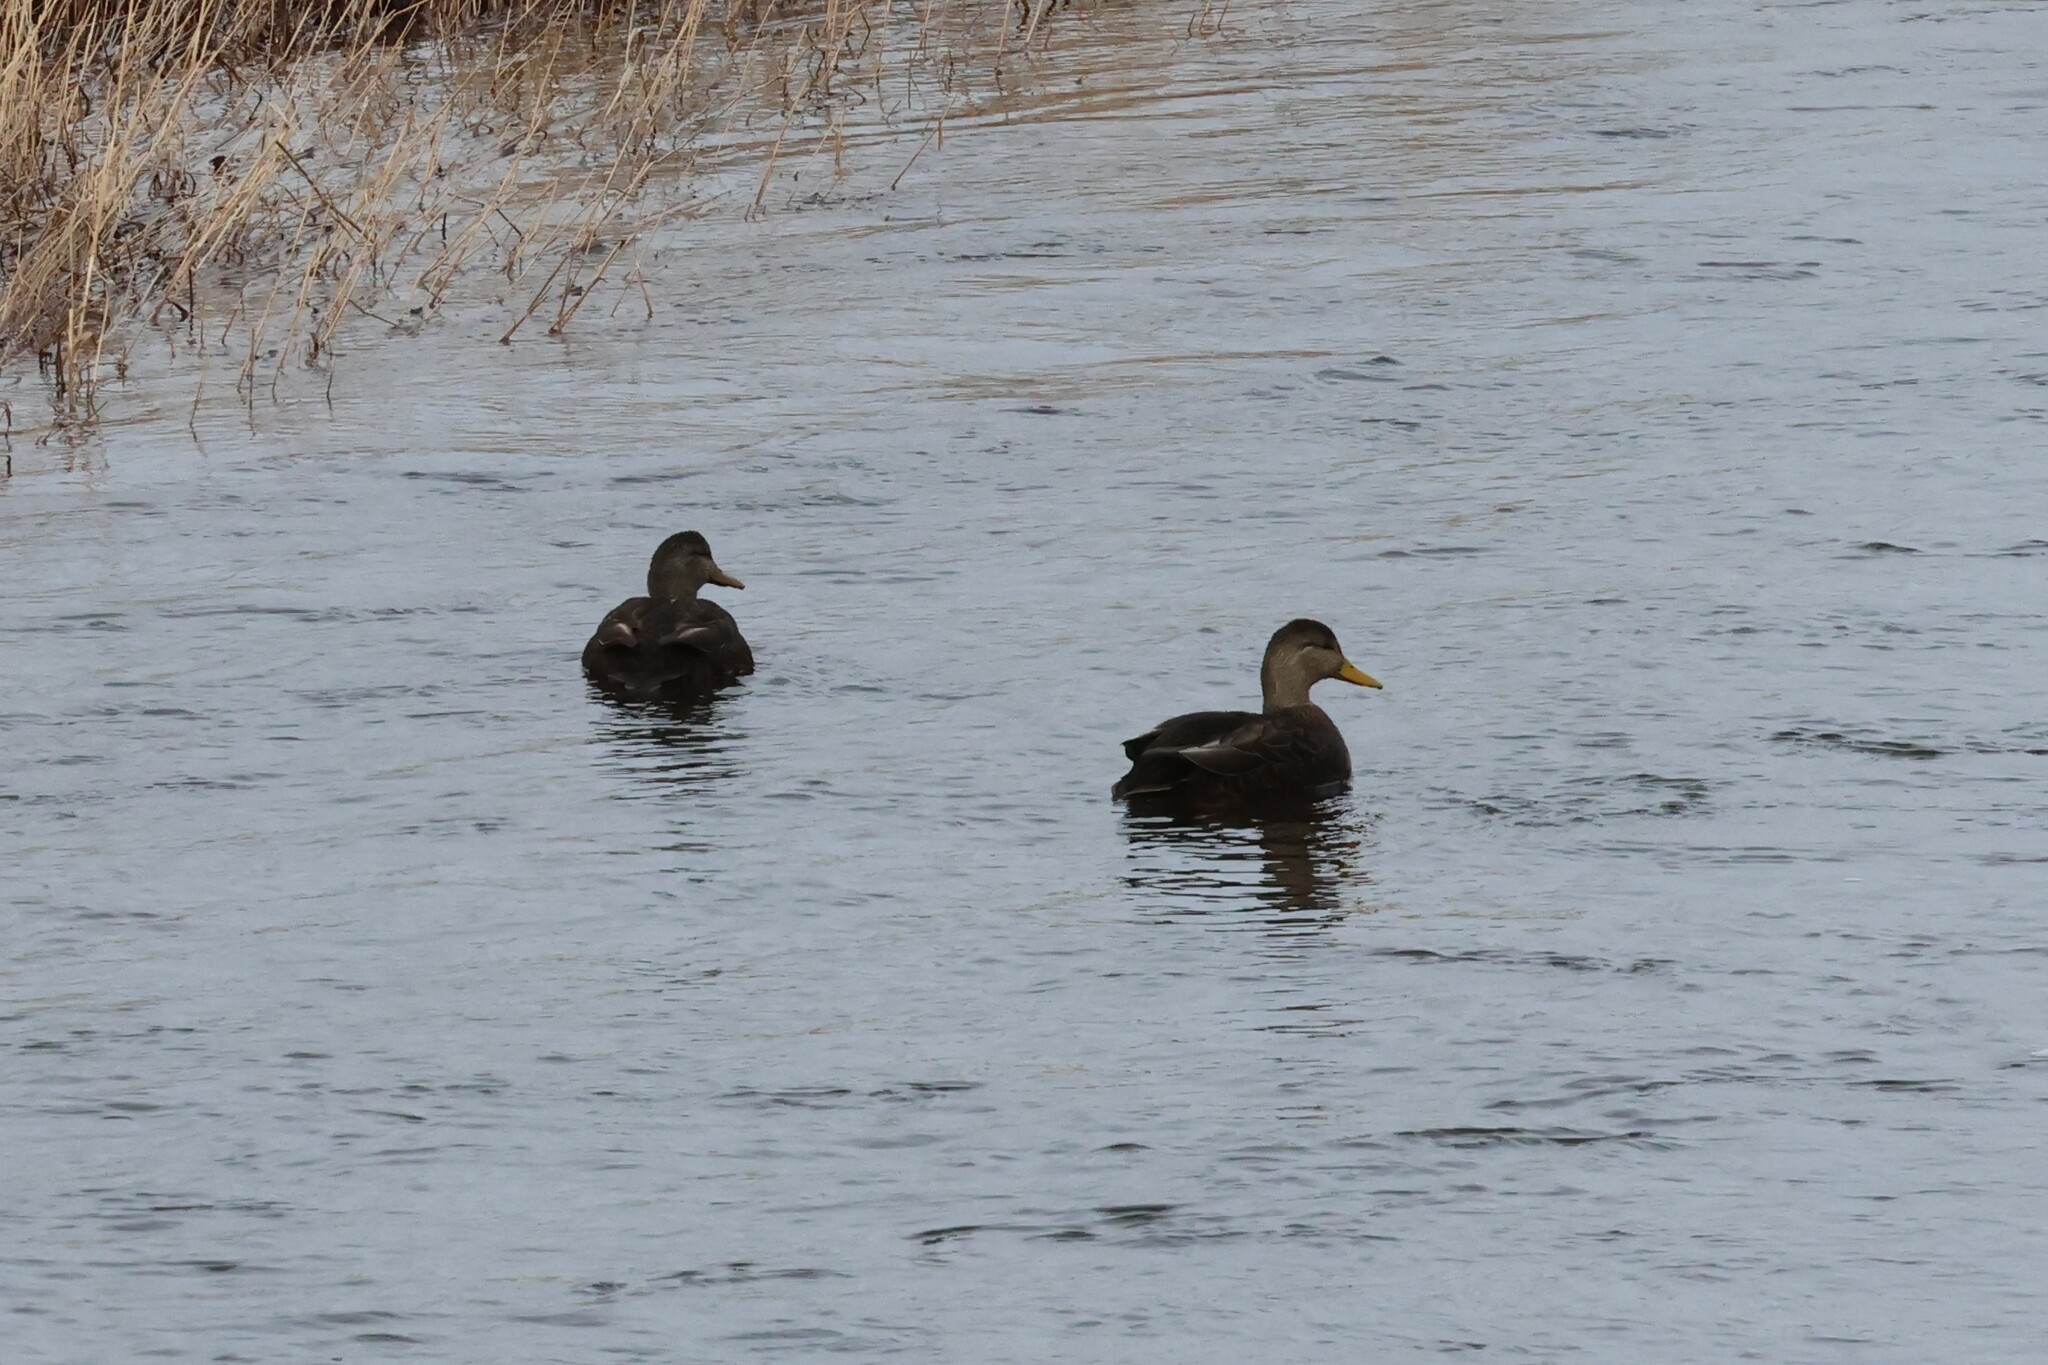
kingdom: Animalia
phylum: Chordata
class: Aves
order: Anseriformes
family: Anatidae
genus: Anas
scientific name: Anas rubripes
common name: American black duck
